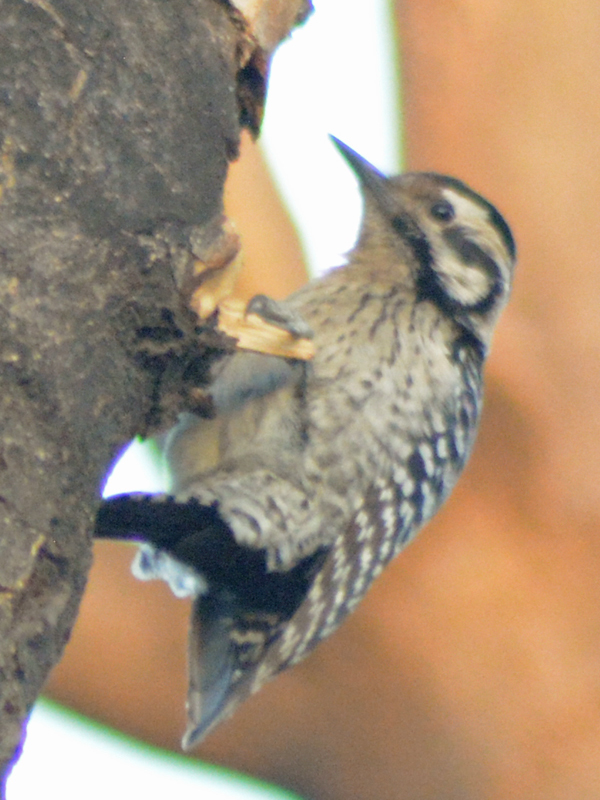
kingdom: Animalia
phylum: Chordata
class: Aves
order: Piciformes
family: Picidae
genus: Dryobates
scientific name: Dryobates scalaris
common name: Ladder-backed woodpecker
